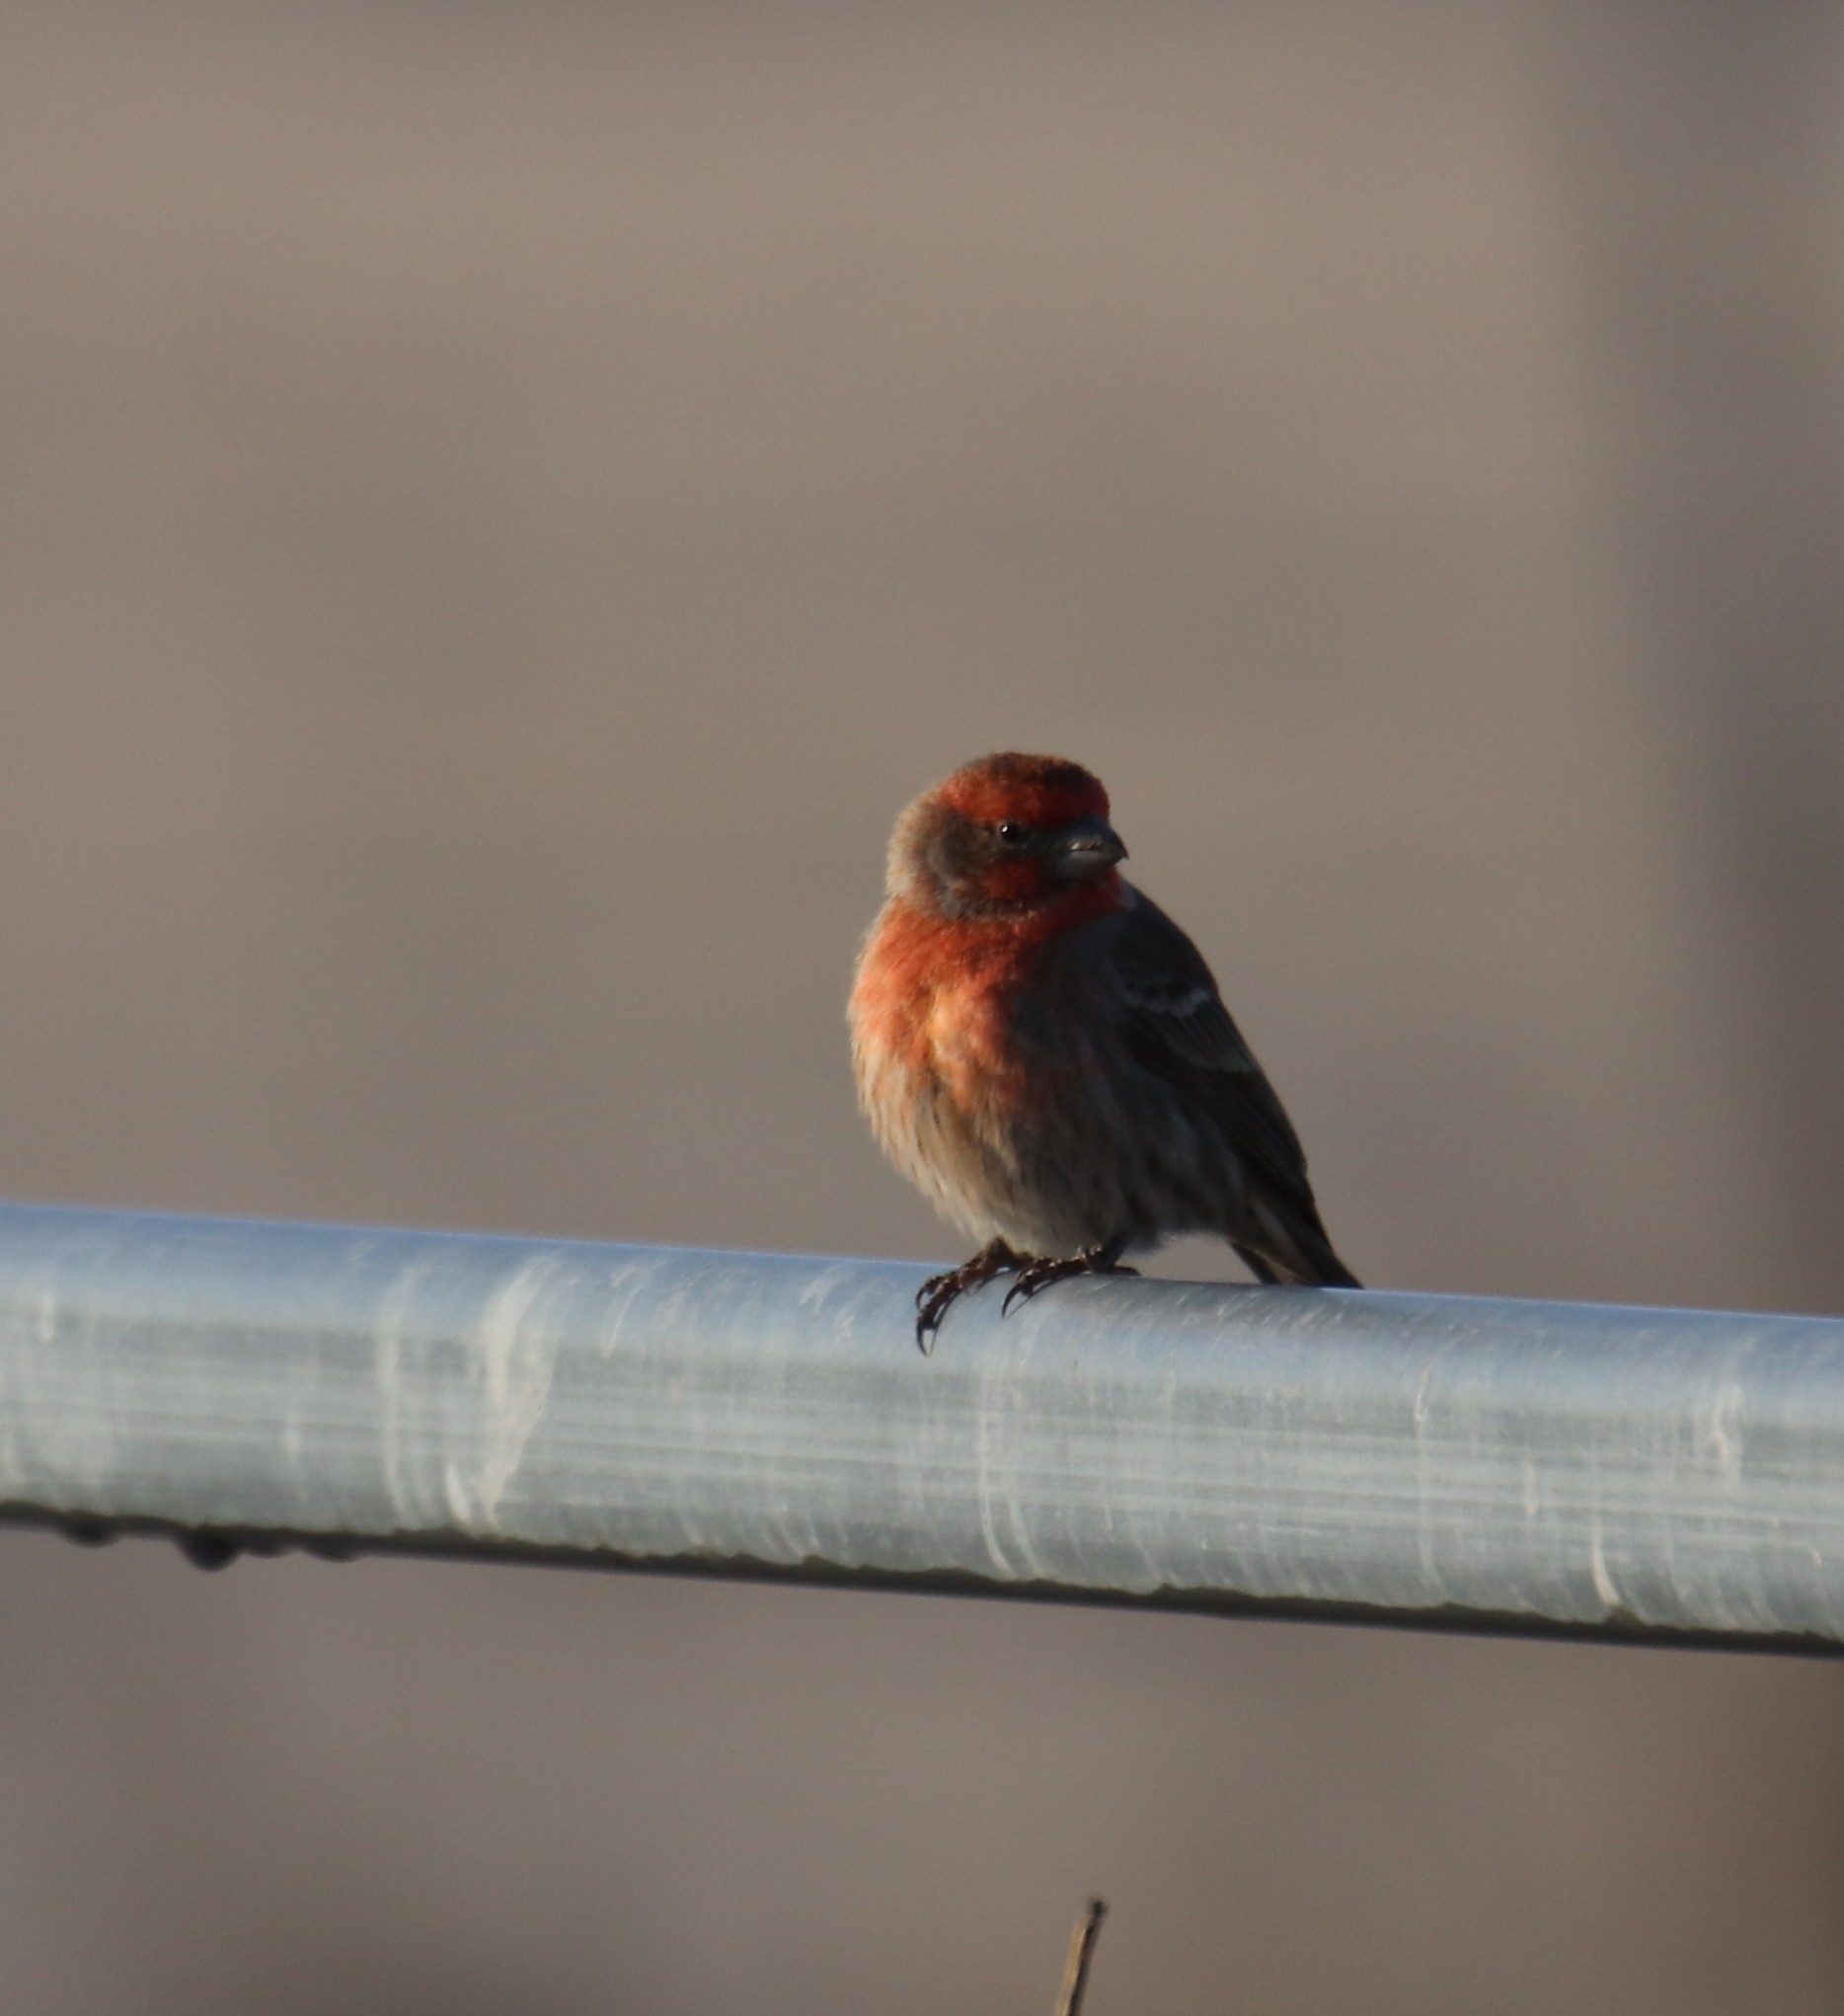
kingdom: Animalia
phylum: Chordata
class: Aves
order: Passeriformes
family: Fringillidae
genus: Haemorhous
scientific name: Haemorhous mexicanus
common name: House finch
